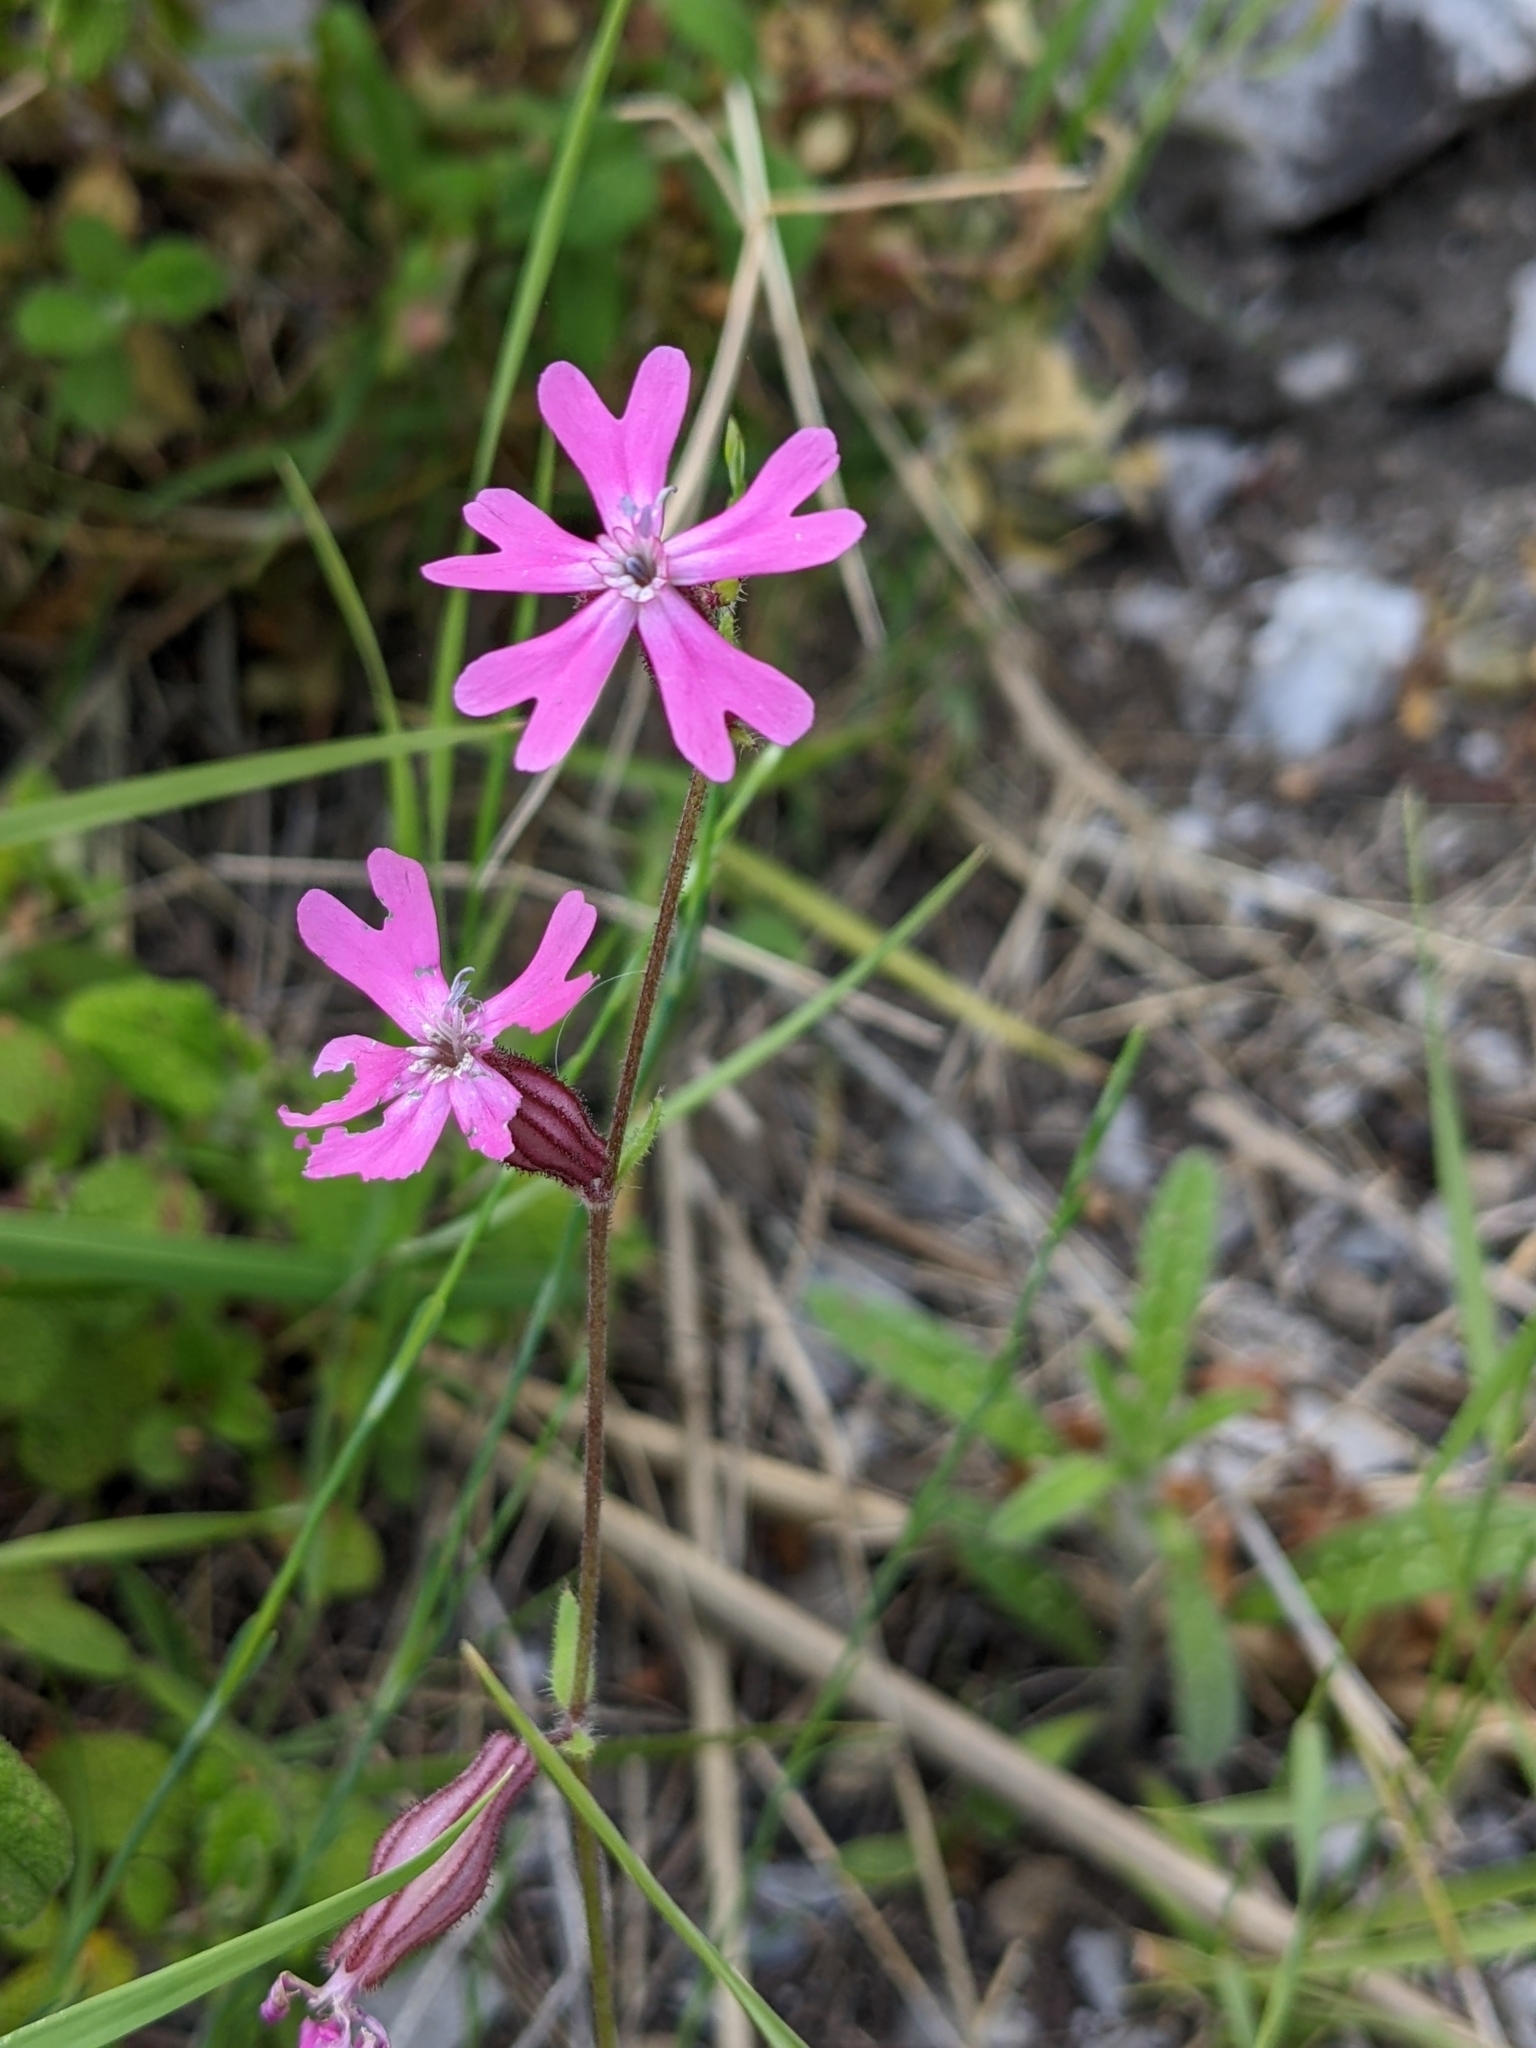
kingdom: Plantae
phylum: Tracheophyta
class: Magnoliopsida
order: Caryophyllales
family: Caryophyllaceae
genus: Silene
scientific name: Silene colorata
